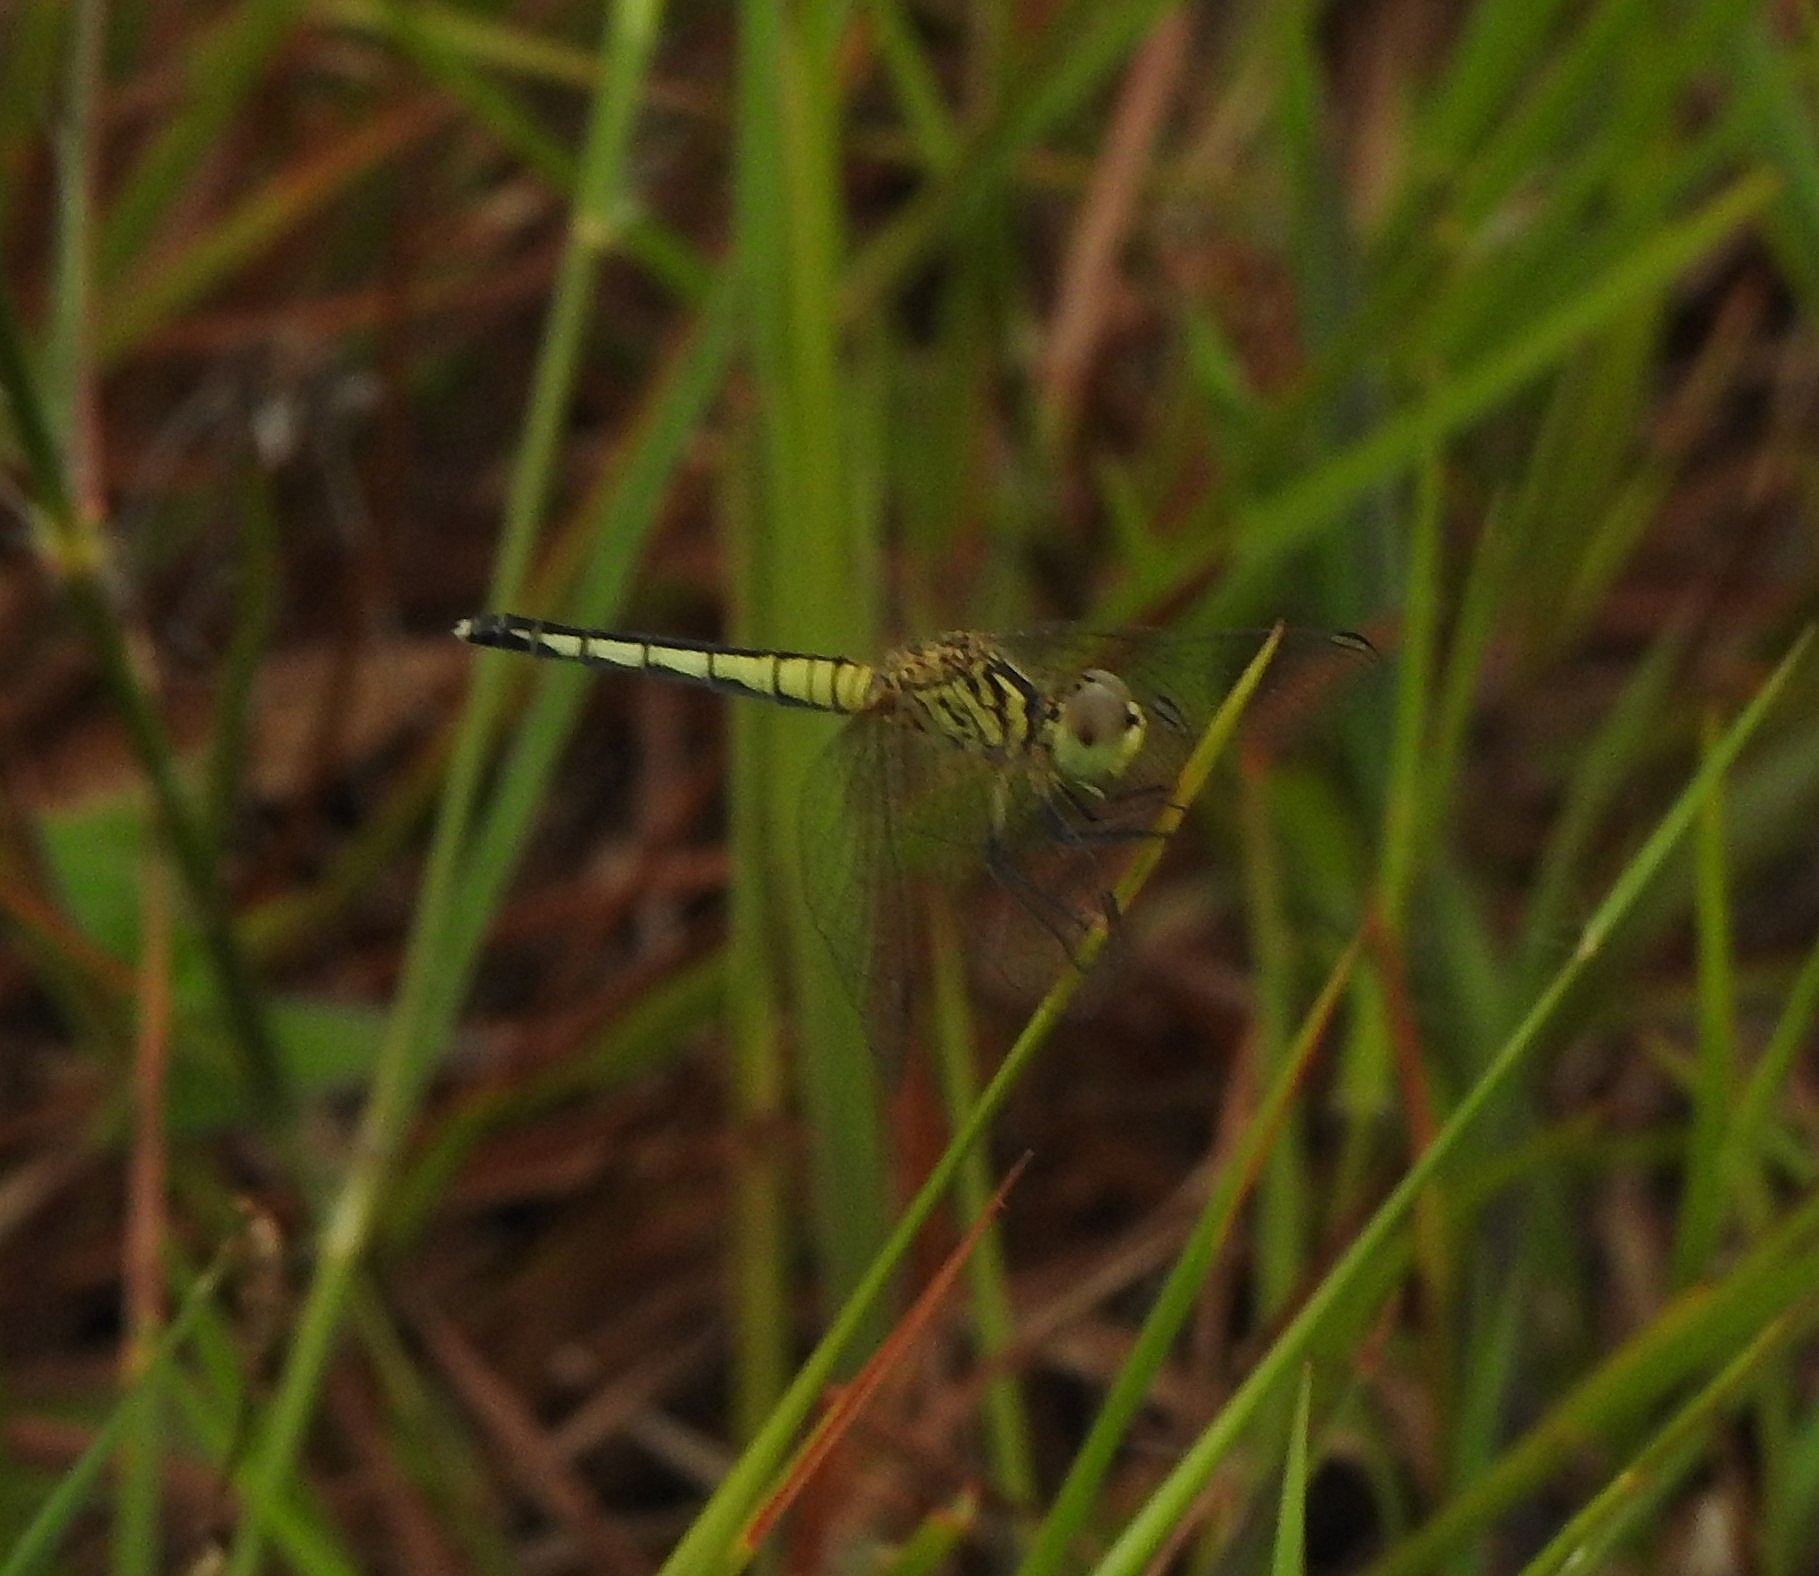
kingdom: Animalia
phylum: Arthropoda
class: Insecta
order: Odonata
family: Libellulidae
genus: Diplacodes
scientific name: Diplacodes nebulosa
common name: Black-tipped percher
